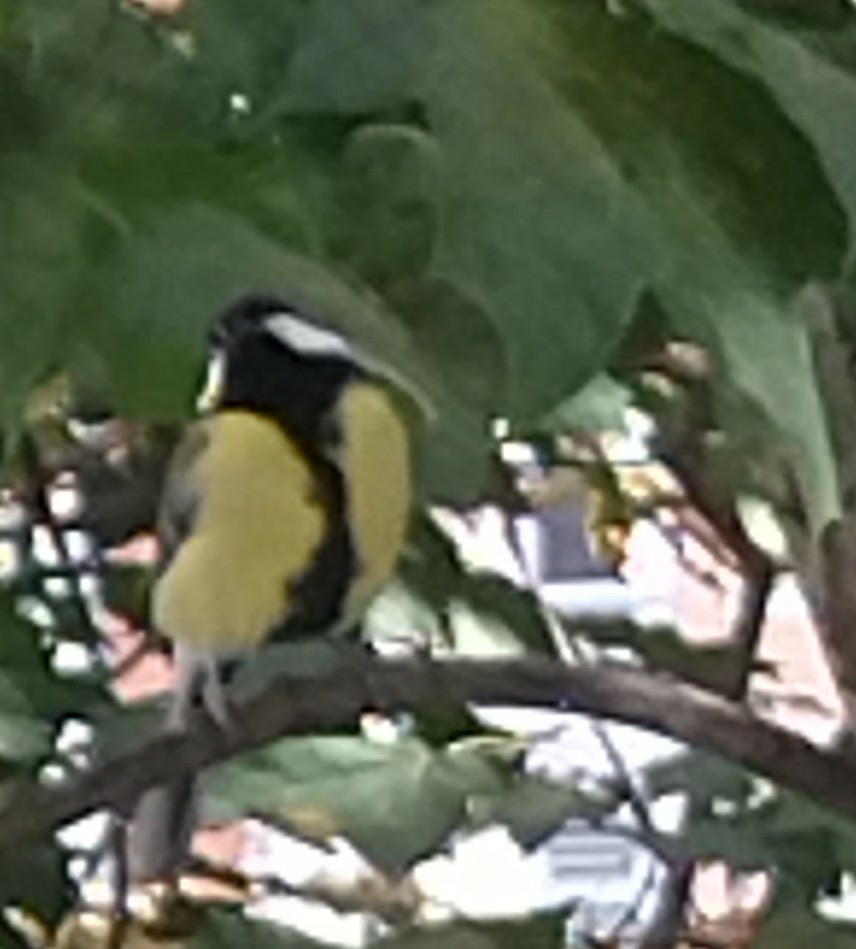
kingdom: Animalia
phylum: Chordata
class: Aves
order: Passeriformes
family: Paridae
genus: Parus
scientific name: Parus major
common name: Great tit
